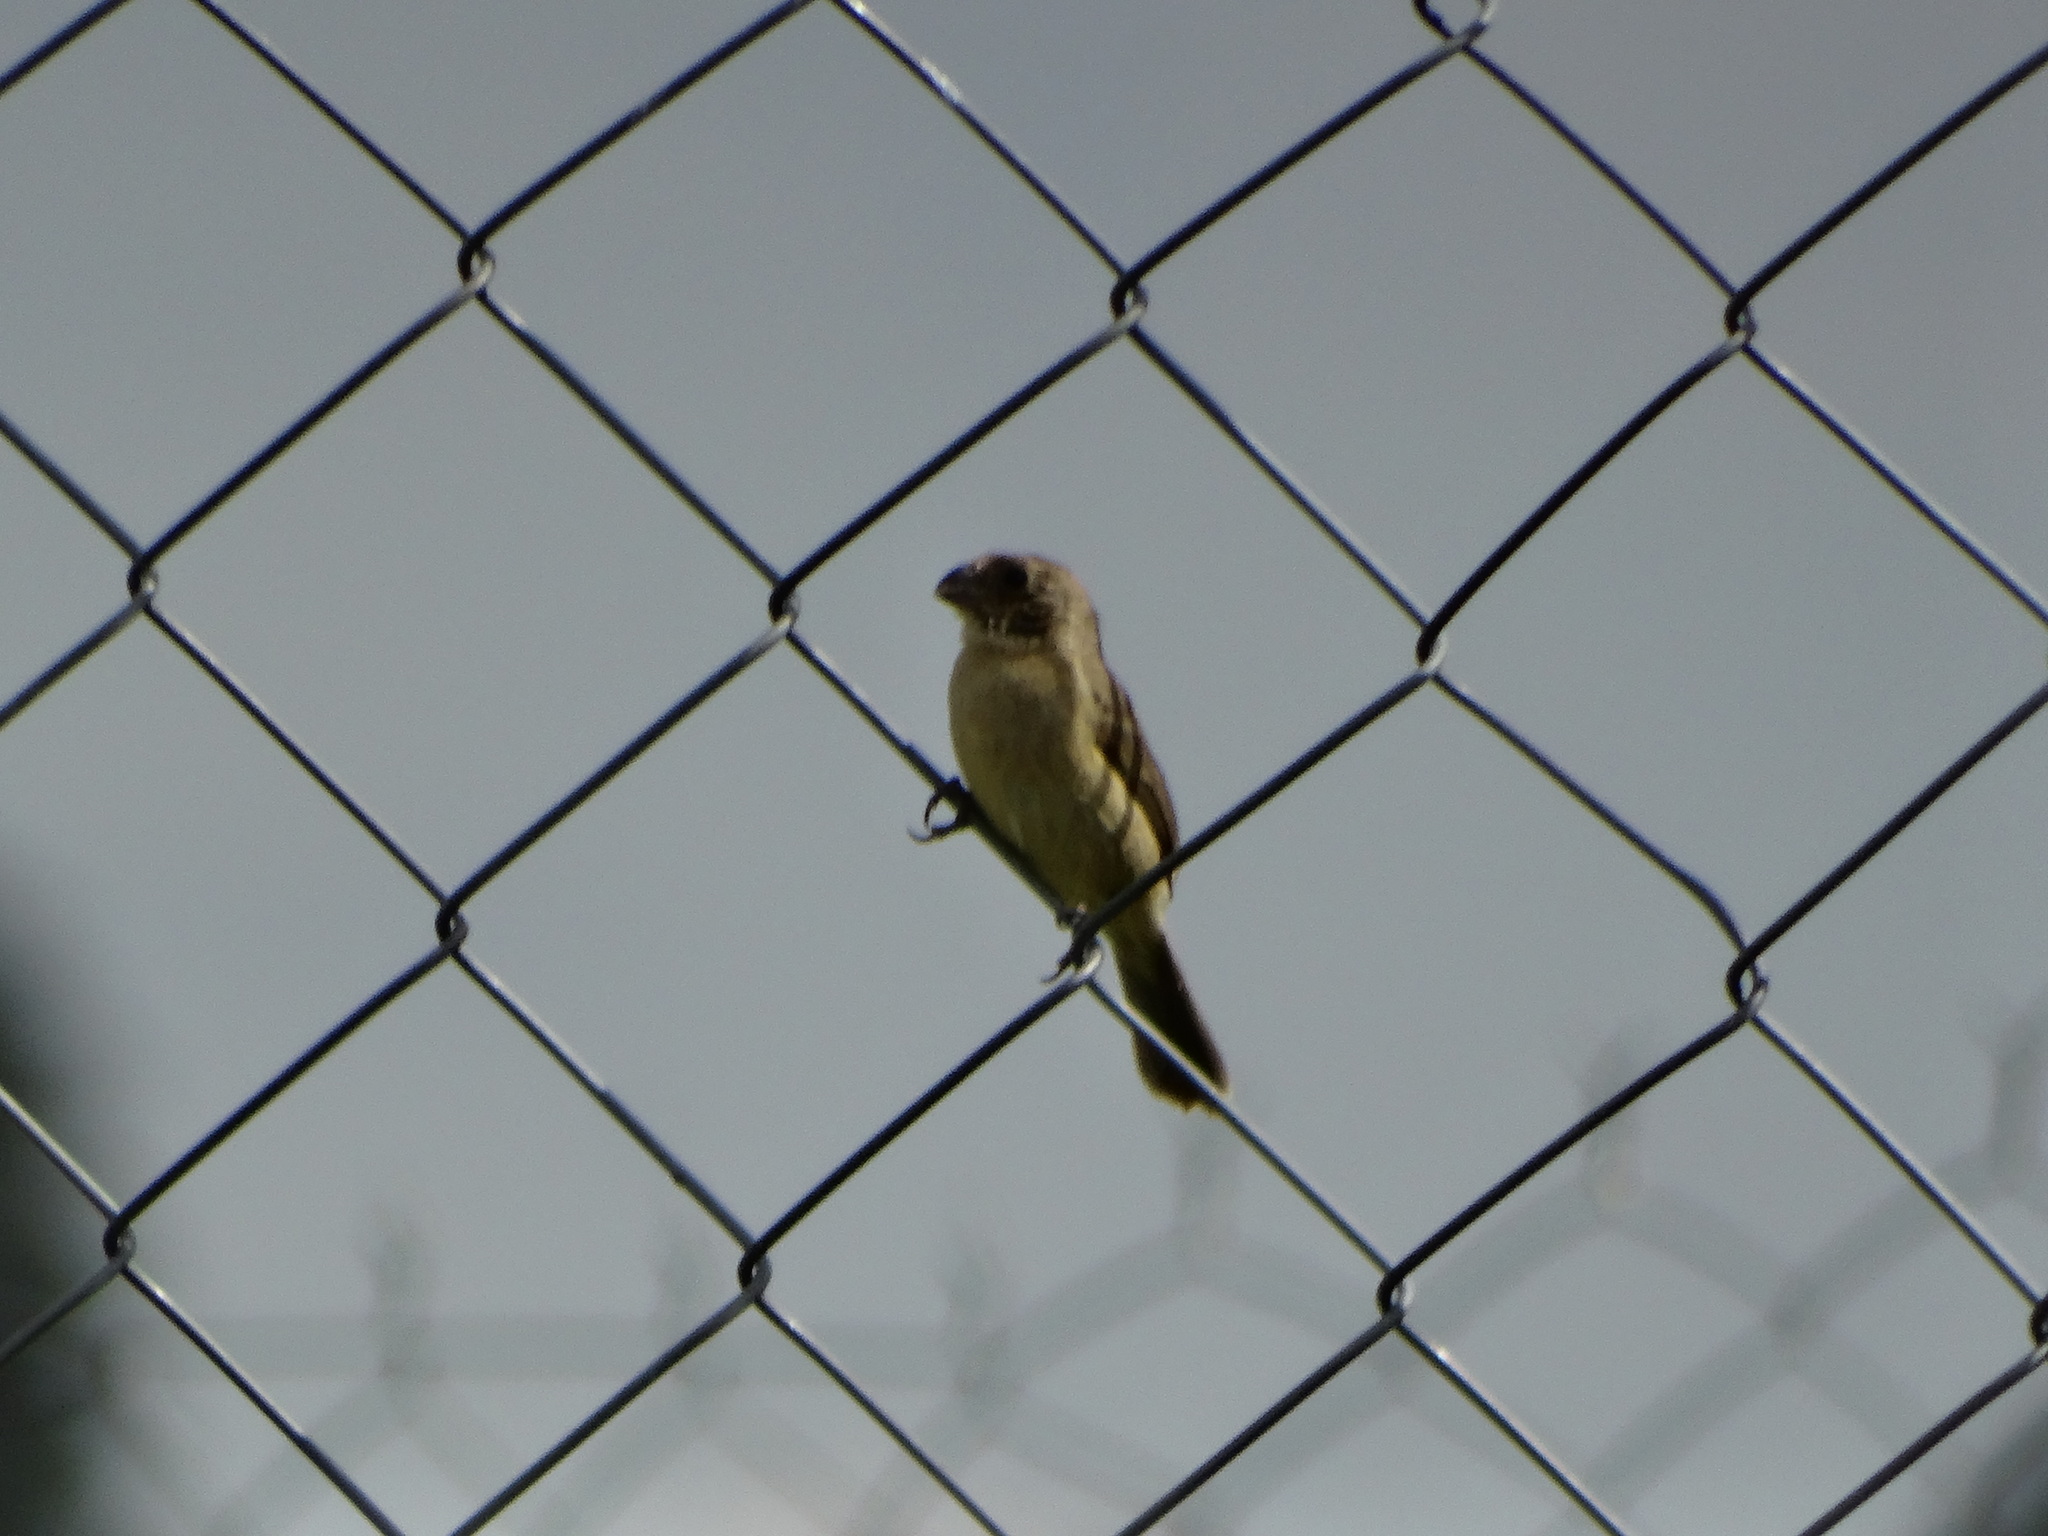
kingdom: Animalia
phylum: Chordata
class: Aves
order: Passeriformes
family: Thraupidae
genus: Sporophila
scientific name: Sporophila torqueola
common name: White-collared seedeater
